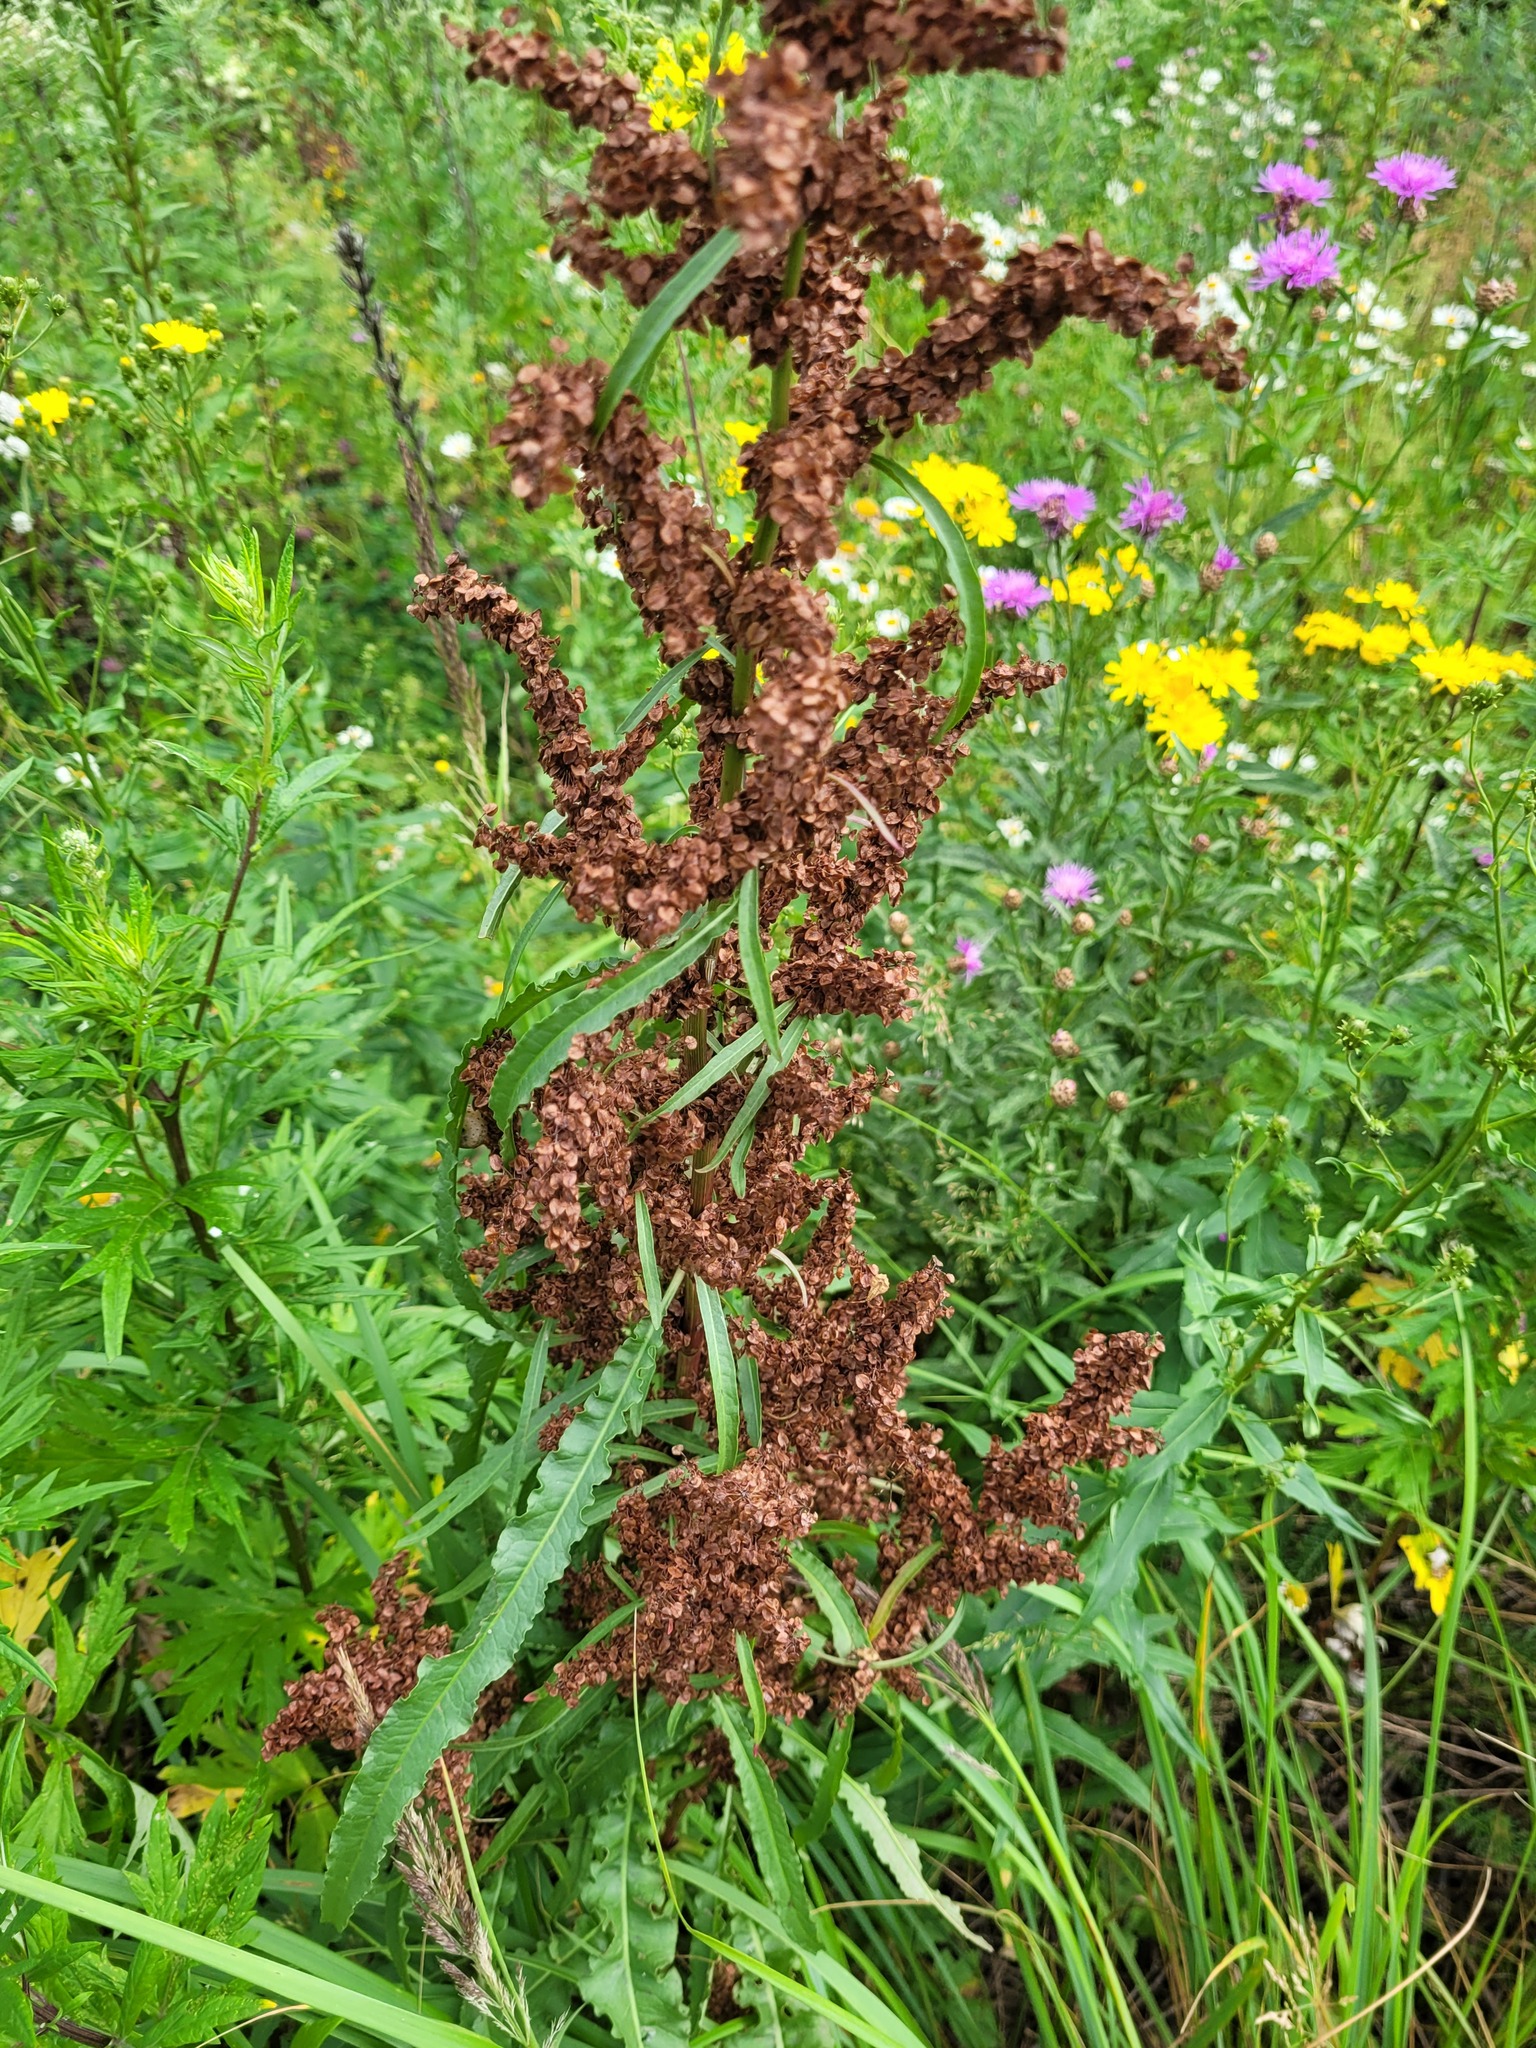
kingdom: Plantae
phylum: Tracheophyta
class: Magnoliopsida
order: Caryophyllales
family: Polygonaceae
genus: Rumex
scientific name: Rumex pseudonatronatus
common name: Field dock
